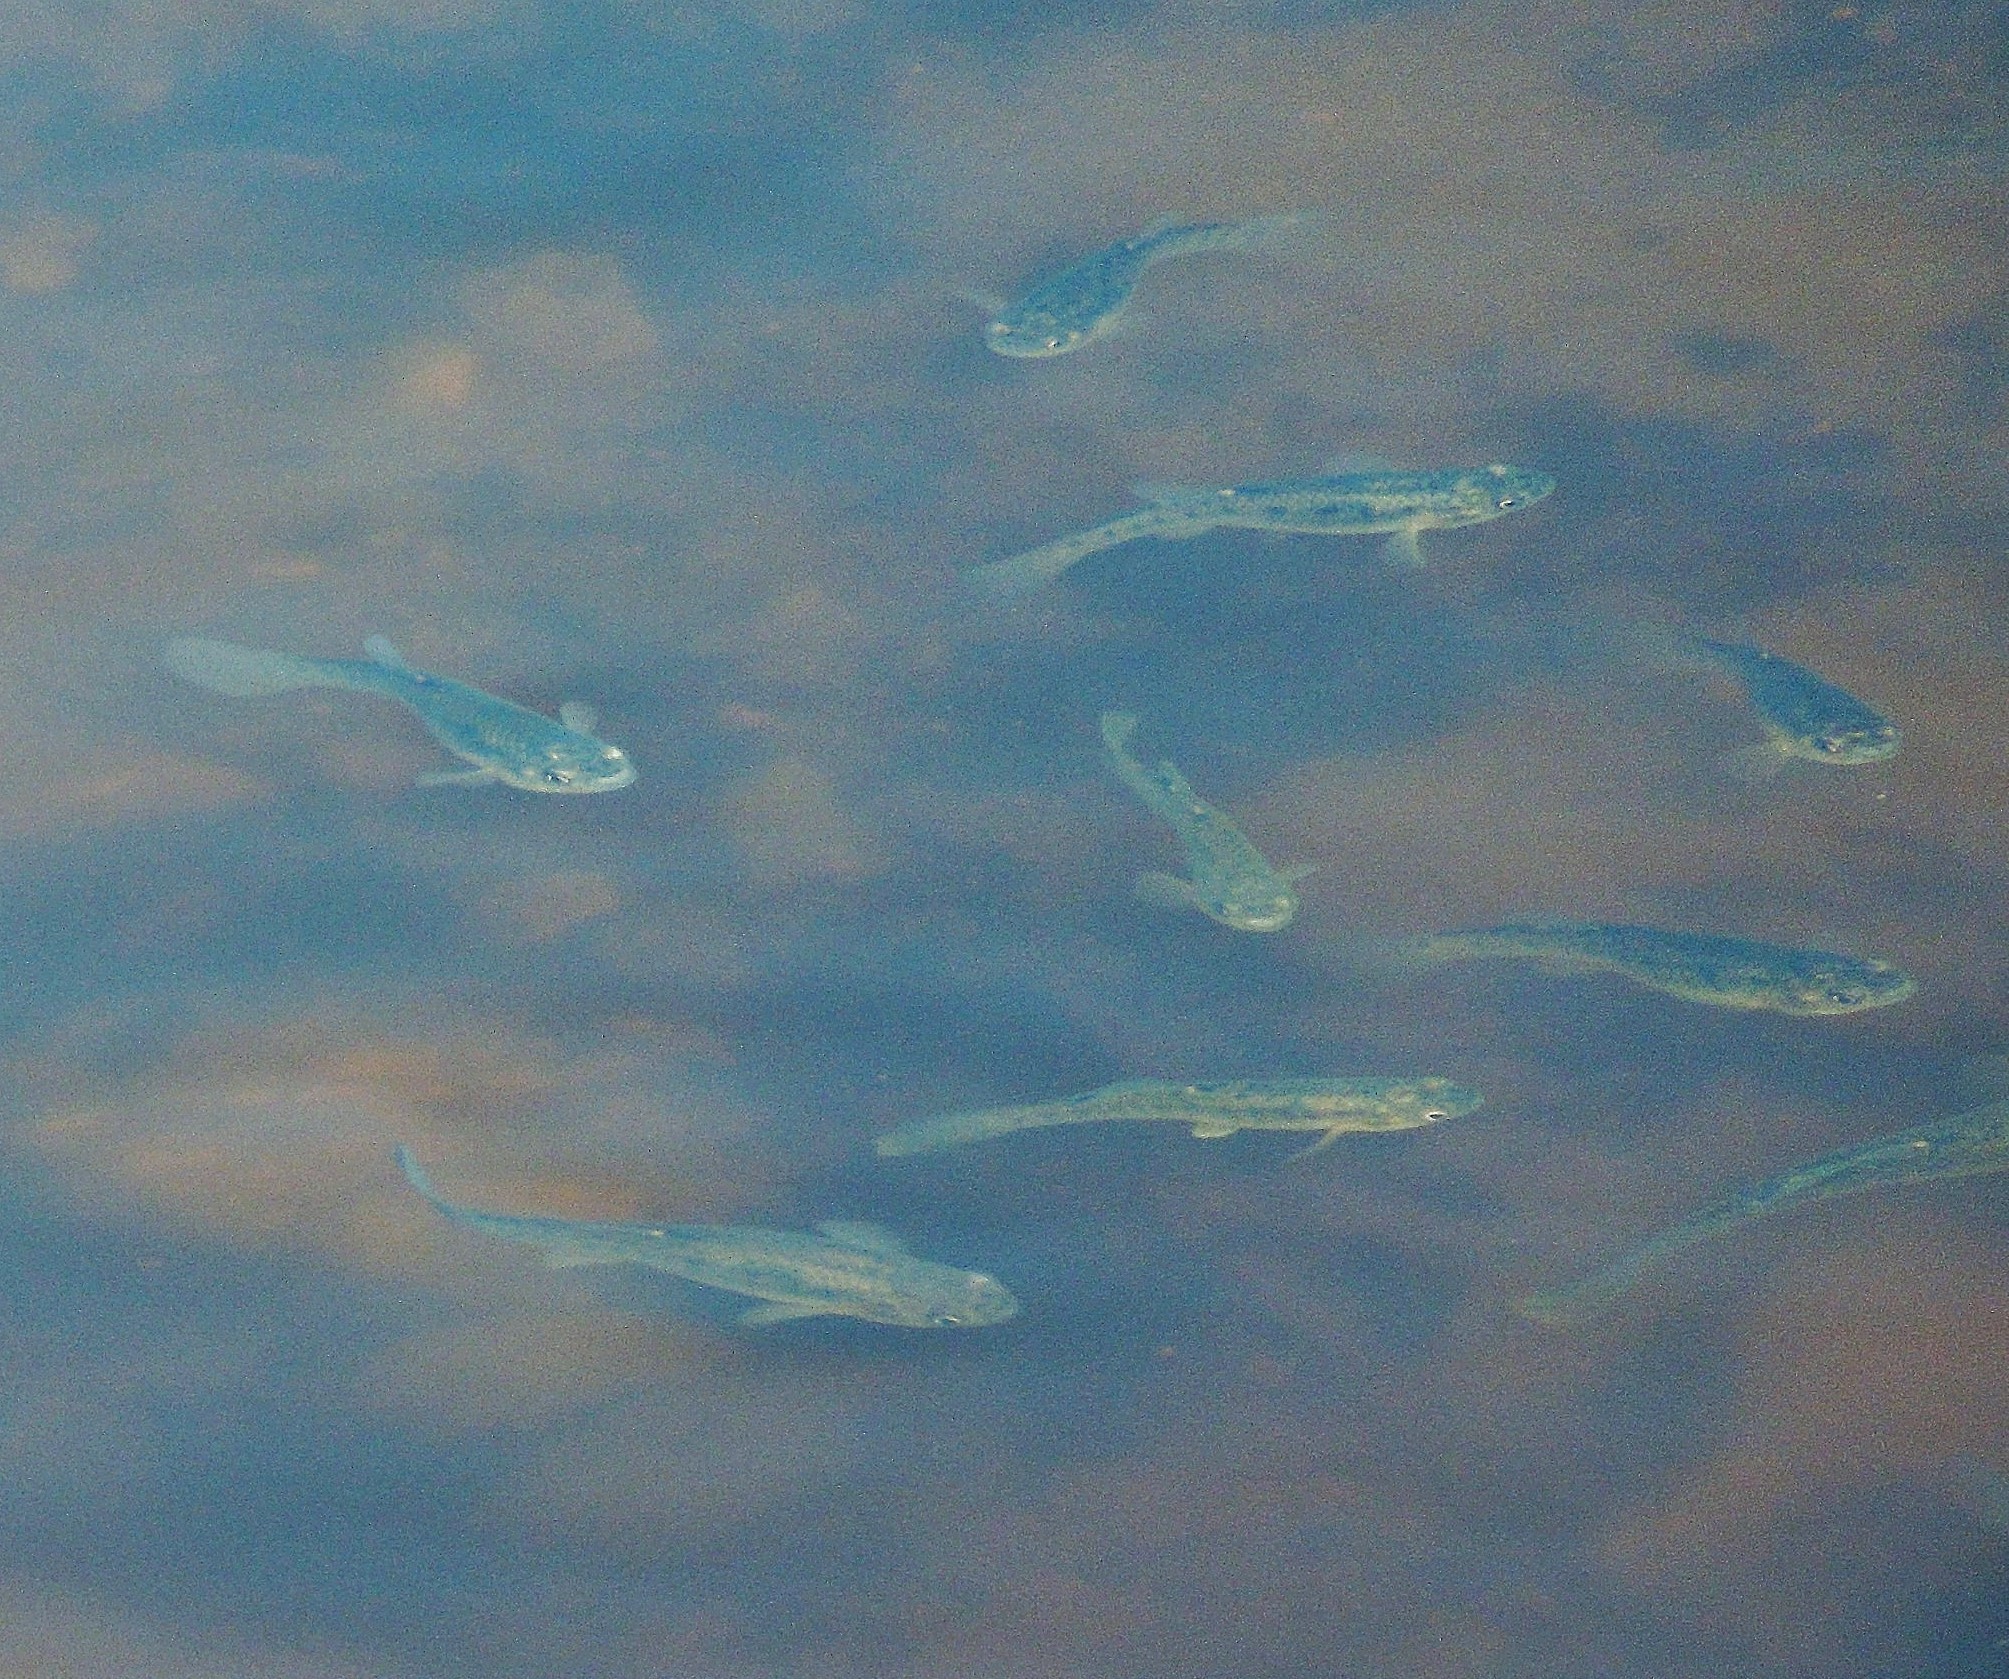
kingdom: Animalia
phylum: Chordata
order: Cyprinodontiformes
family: Fundulidae
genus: Fundulus
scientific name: Fundulus heteroclitus
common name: Mummichog
